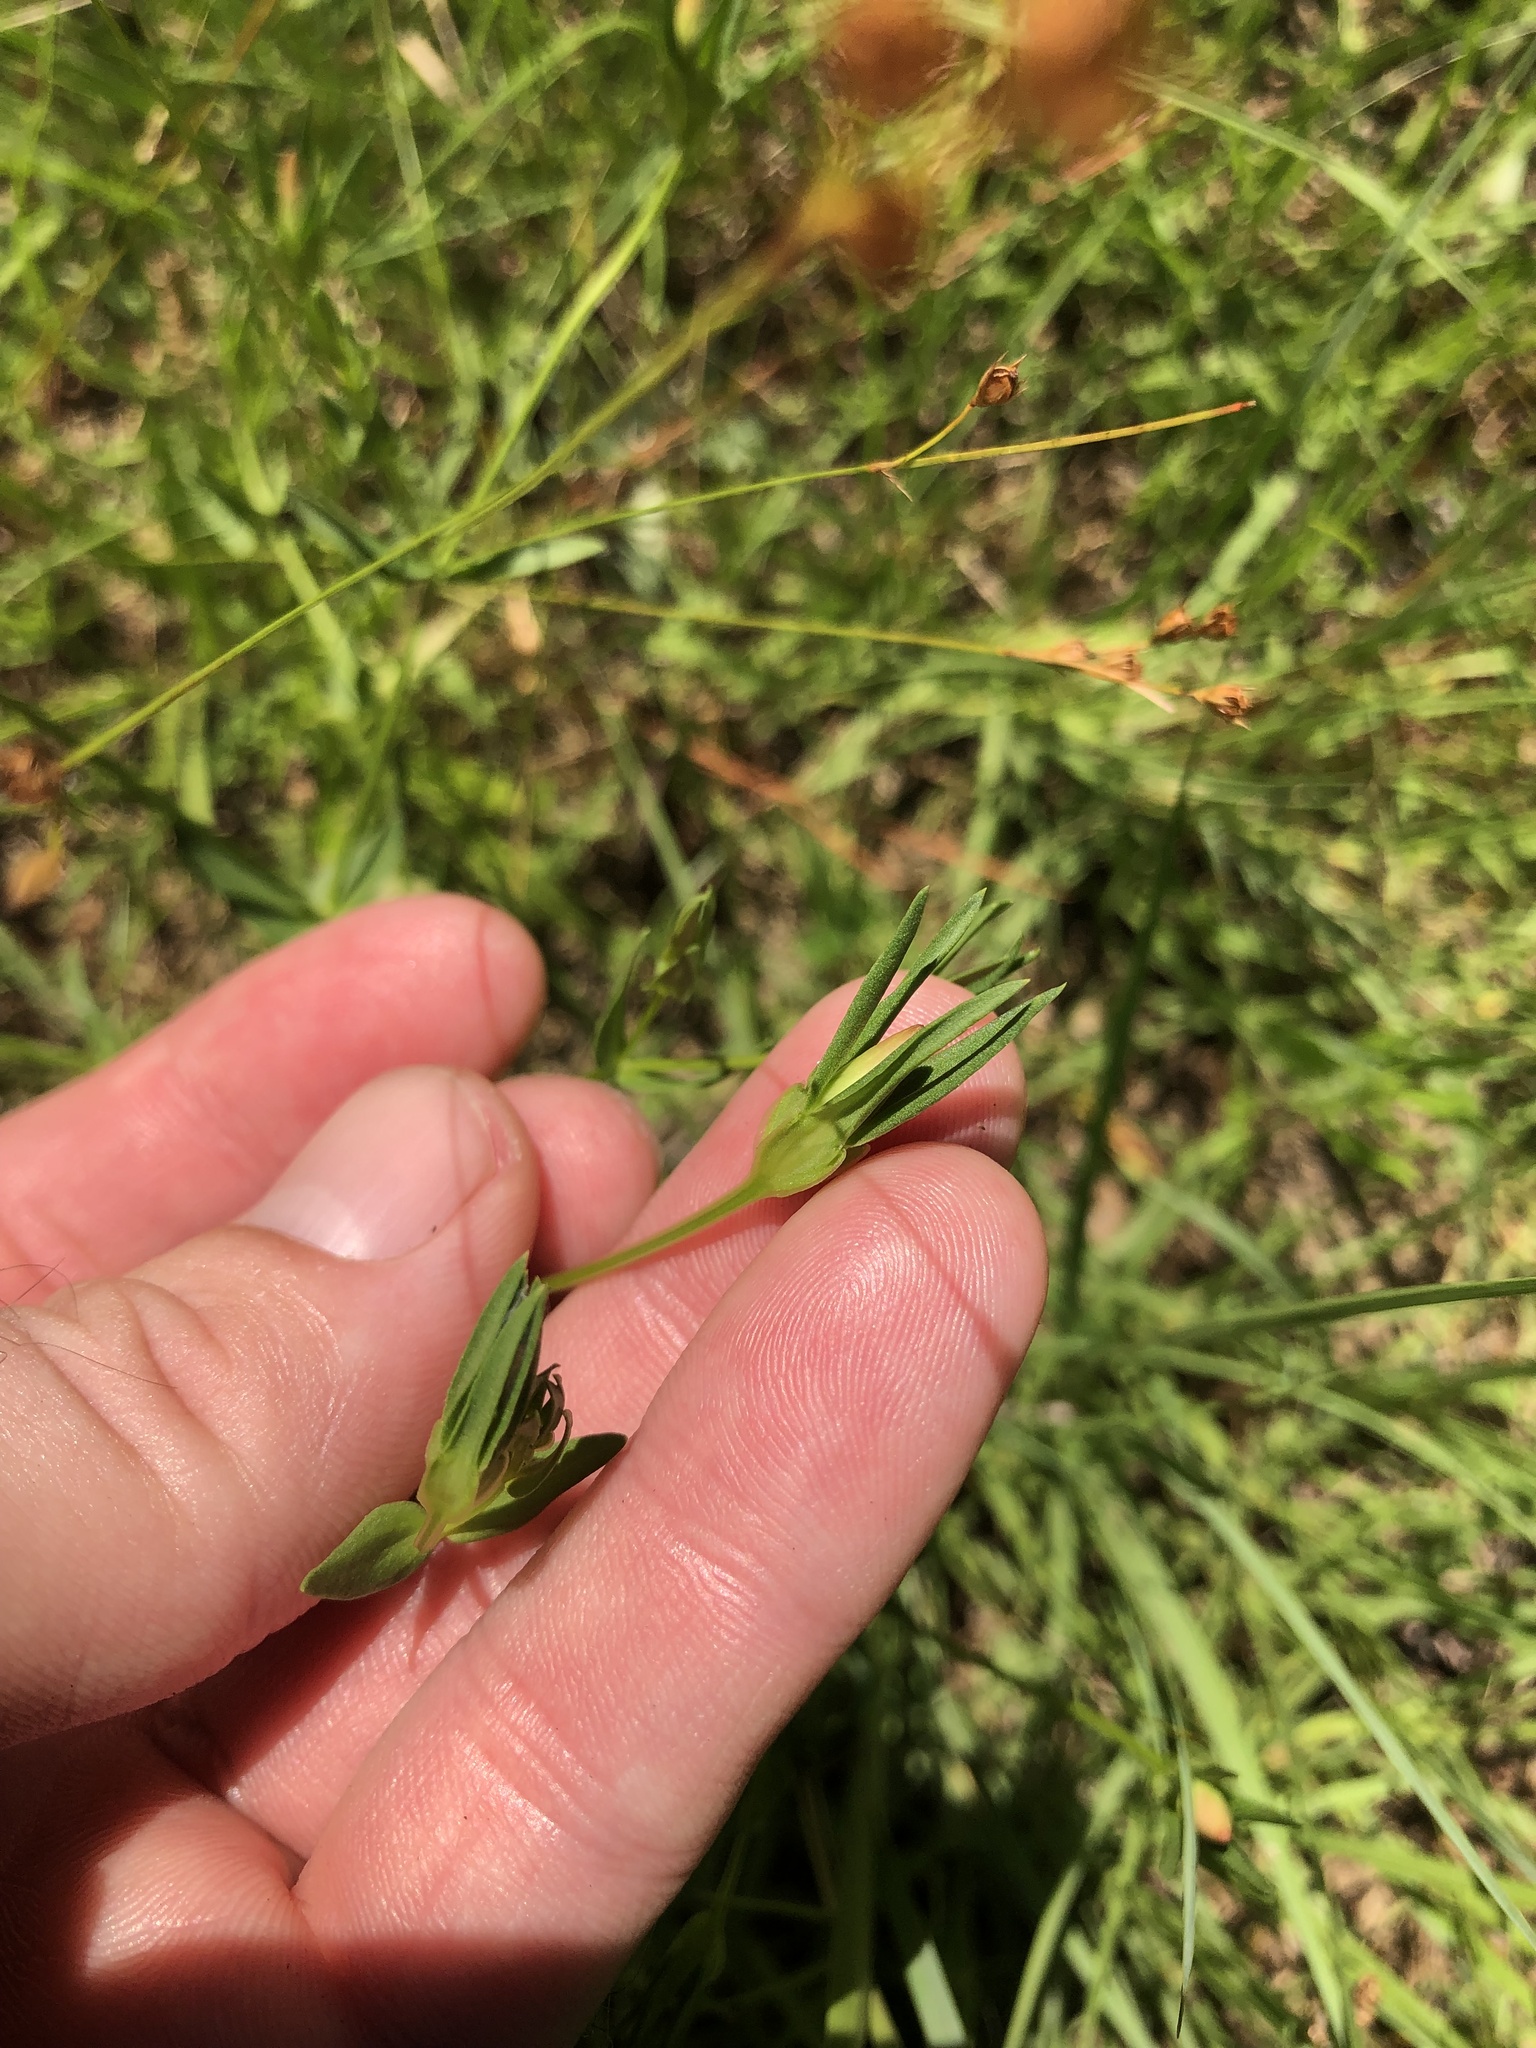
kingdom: Plantae
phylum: Tracheophyta
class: Magnoliopsida
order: Gentianales
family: Gentianaceae
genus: Sabatia
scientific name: Sabatia campestris
